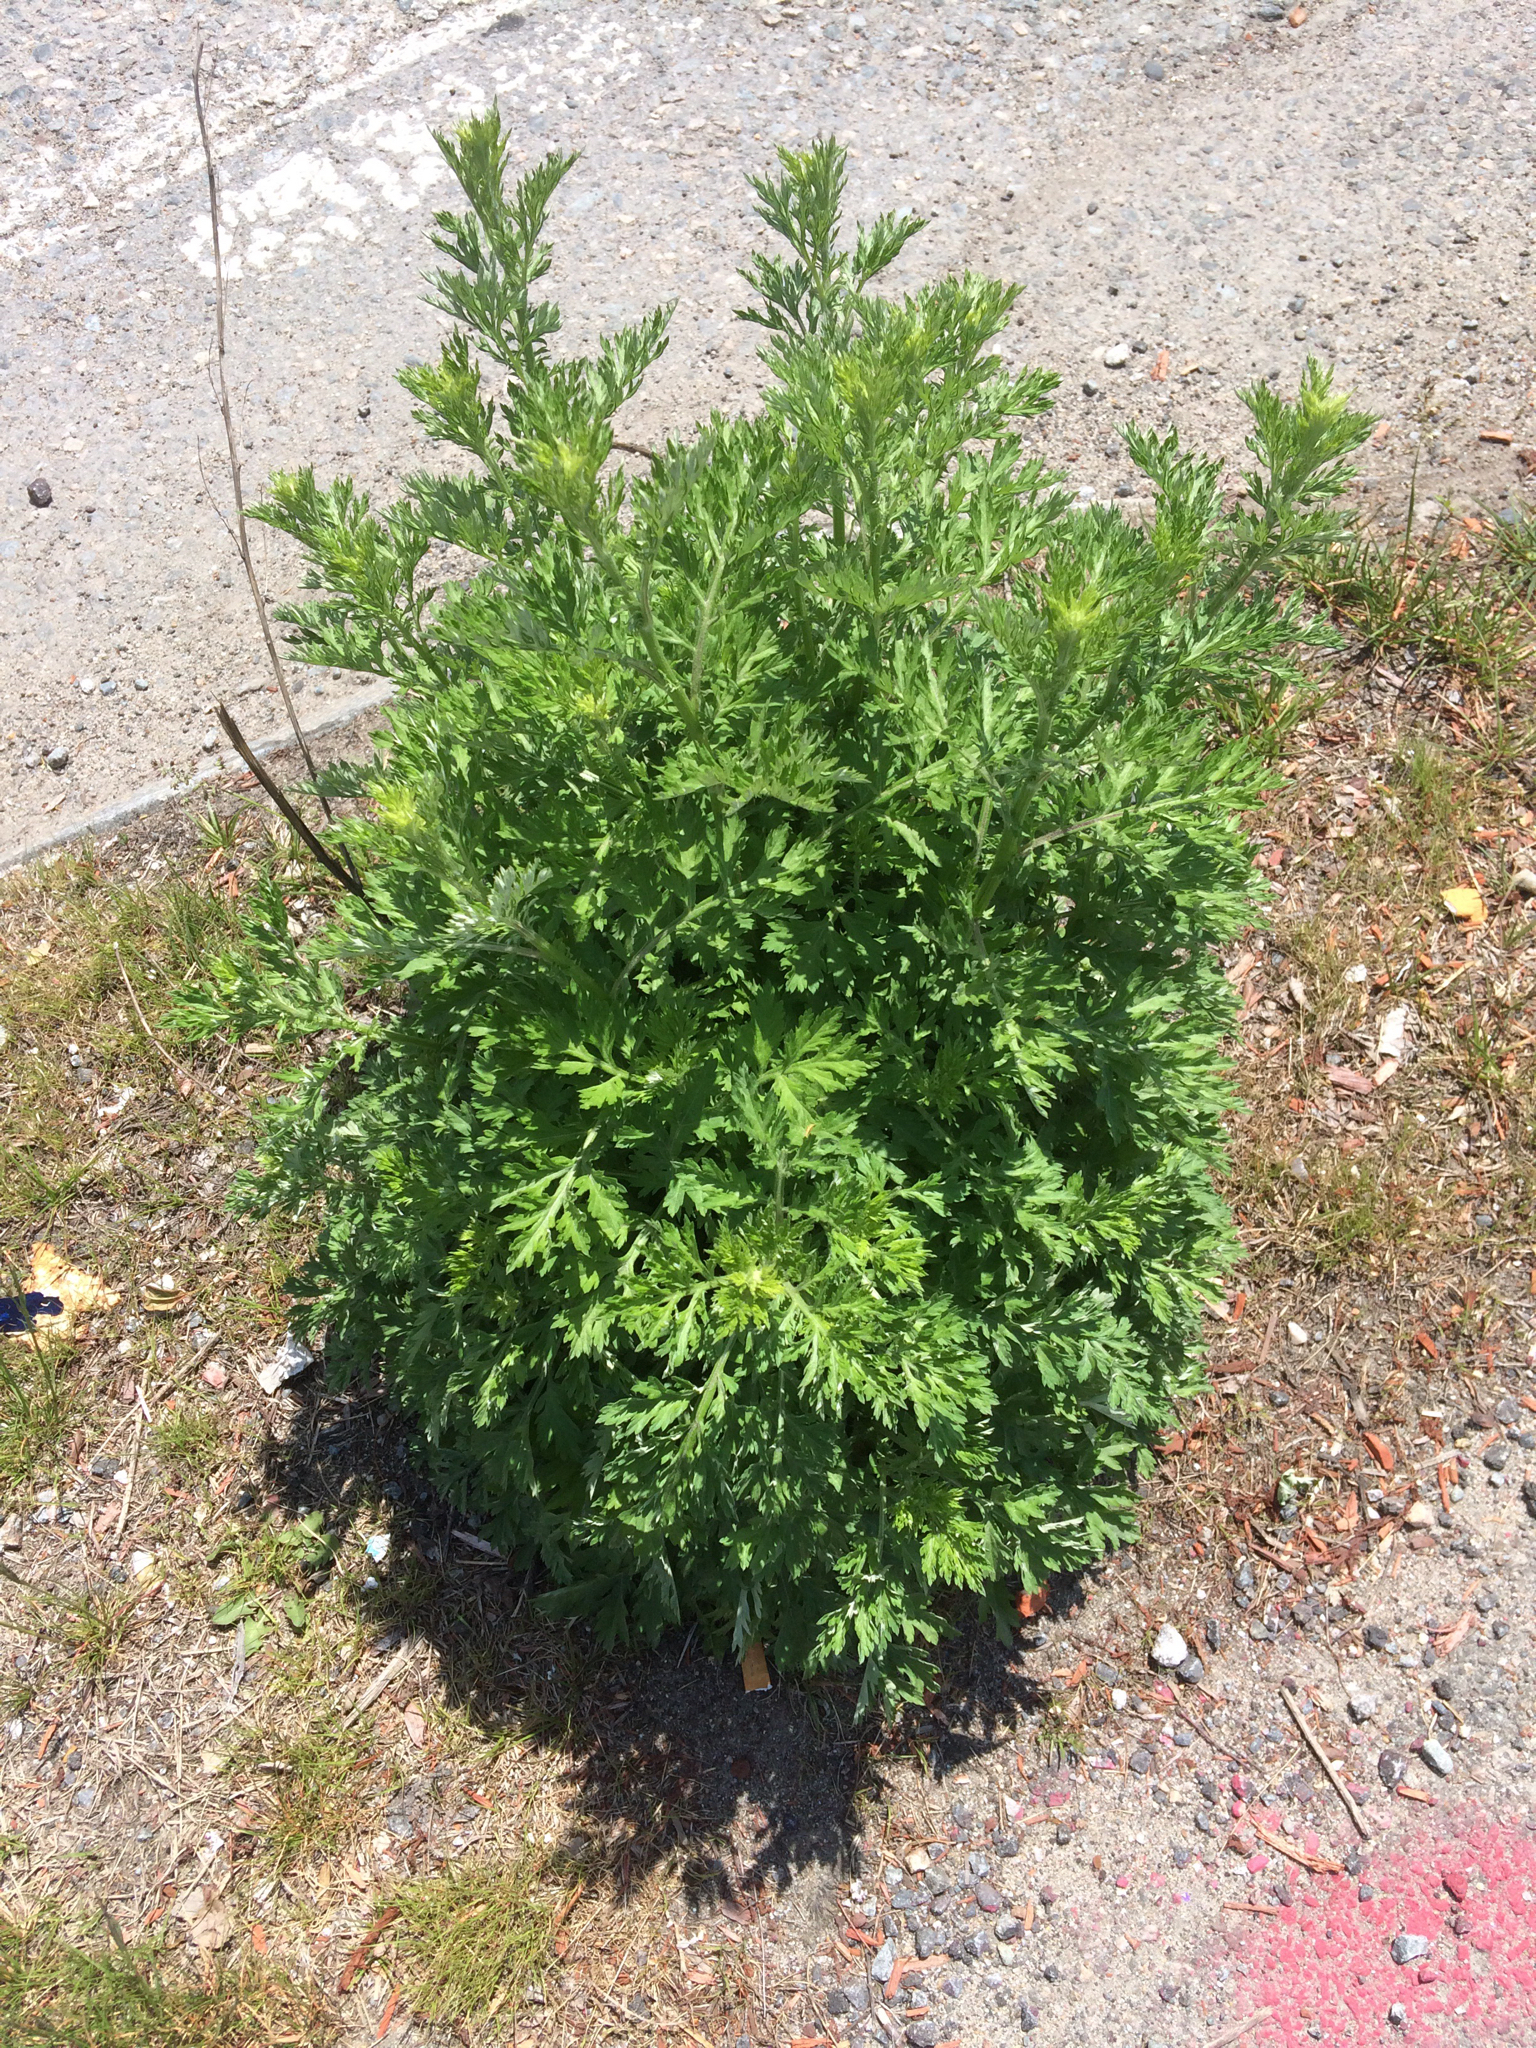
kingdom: Plantae
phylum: Tracheophyta
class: Magnoliopsida
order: Asterales
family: Asteraceae
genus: Artemisia
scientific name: Artemisia vulgaris
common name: Mugwort
